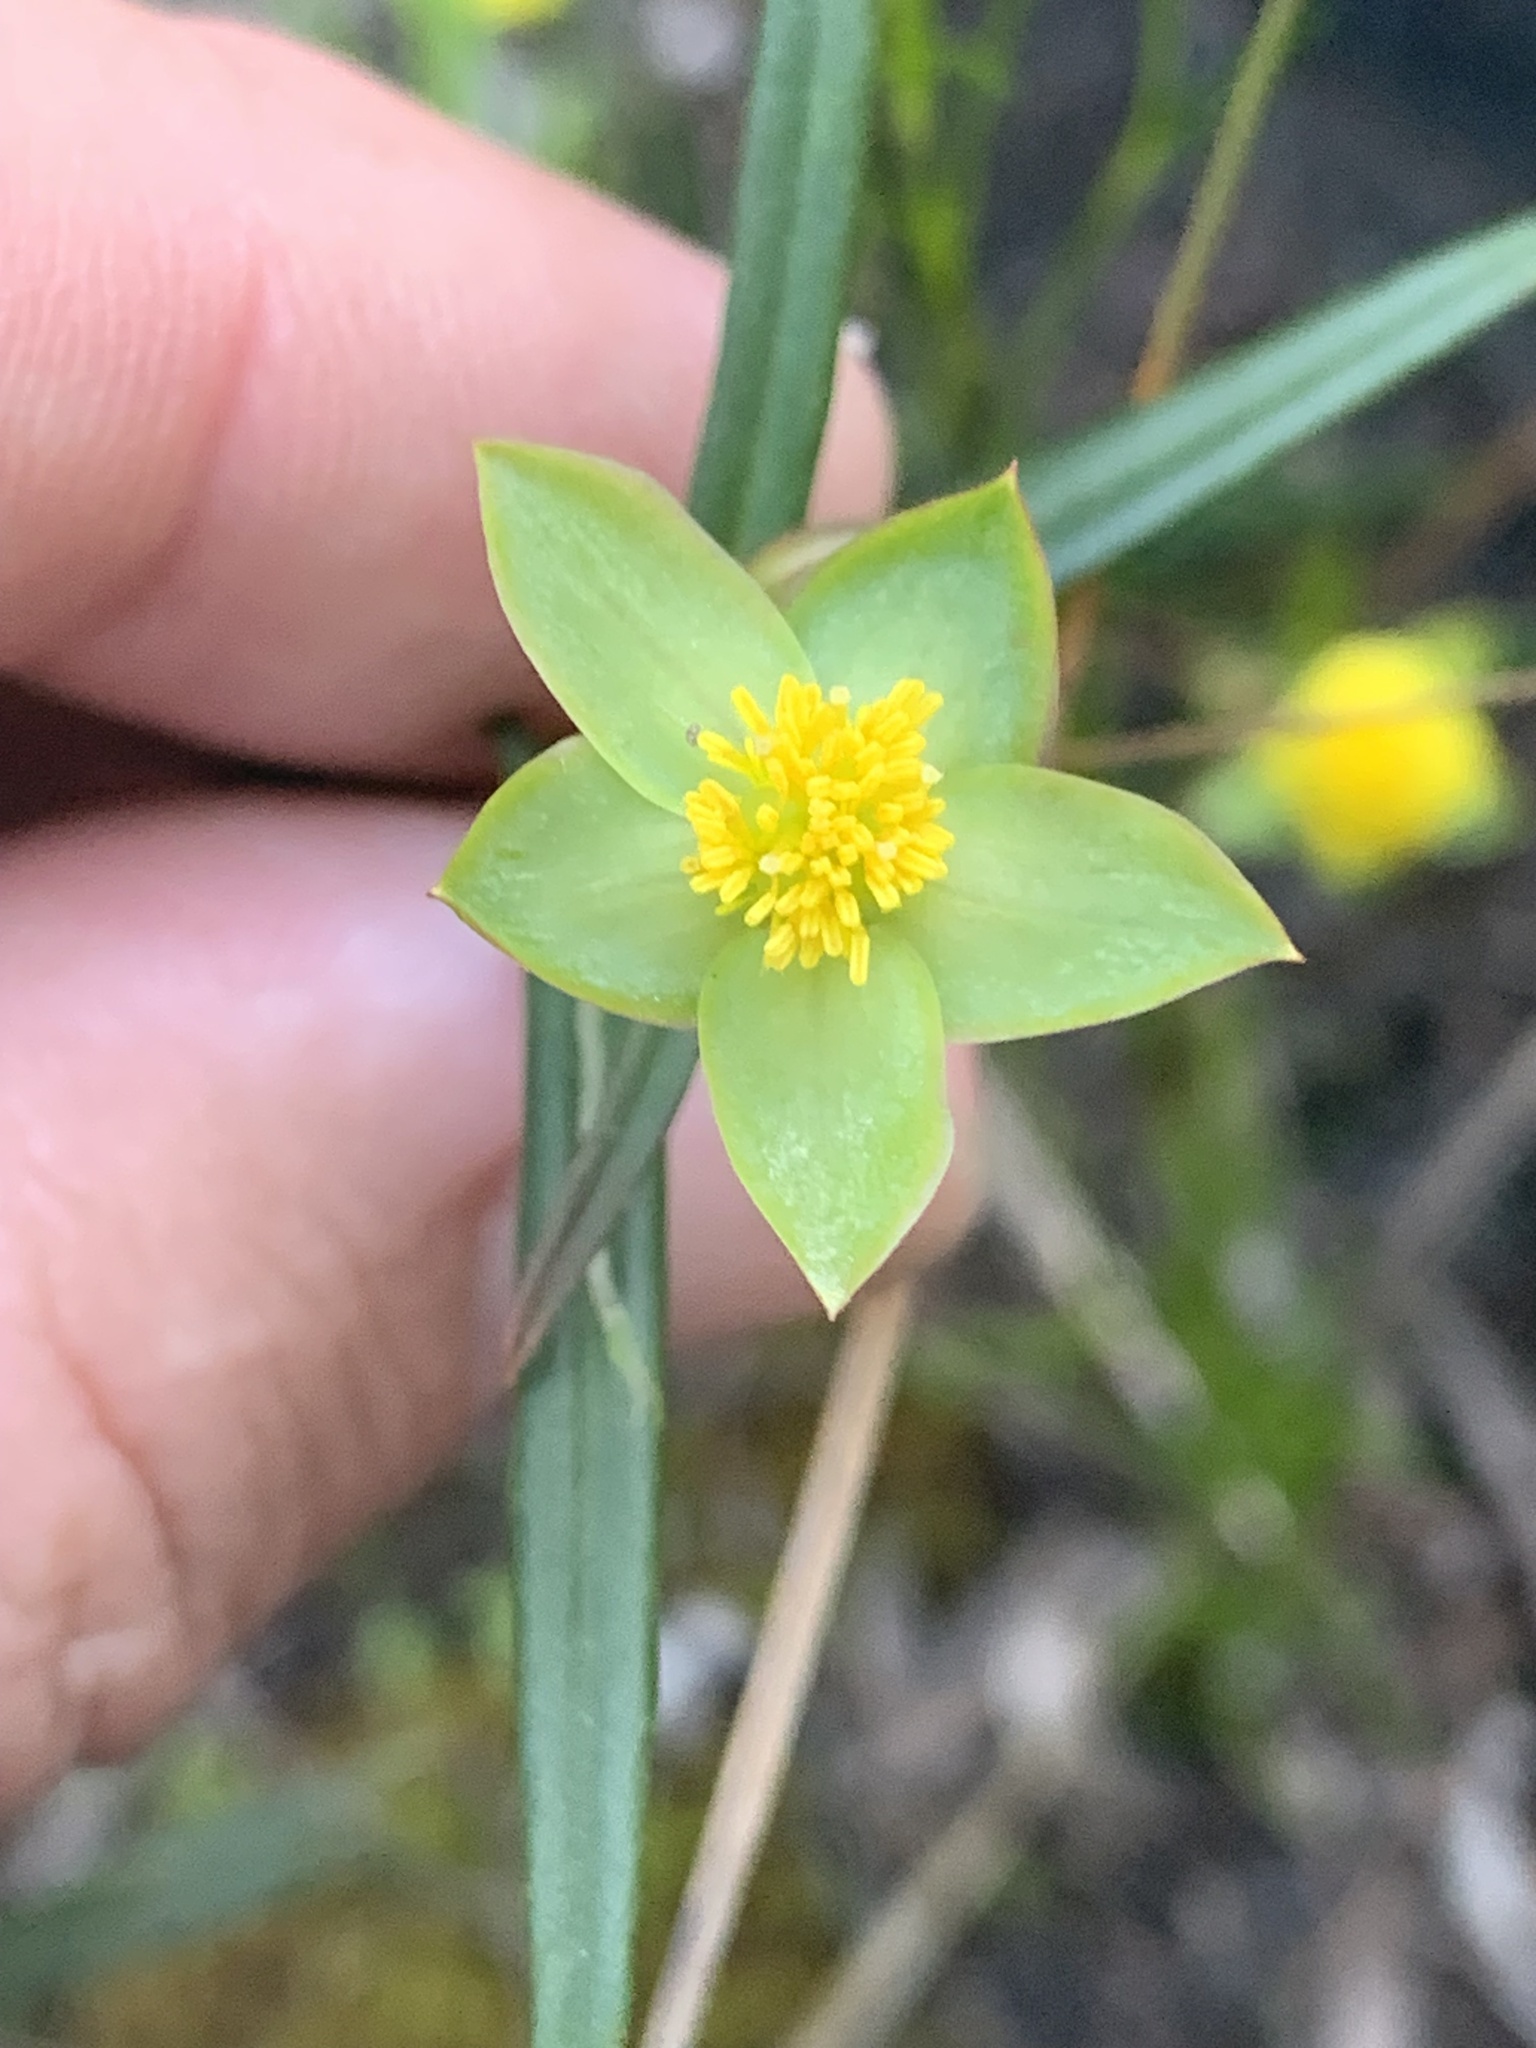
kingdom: Plantae
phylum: Tracheophyta
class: Magnoliopsida
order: Dilleniales
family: Dilleniaceae
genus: Hibbertia
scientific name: Hibbertia cunninghamii
